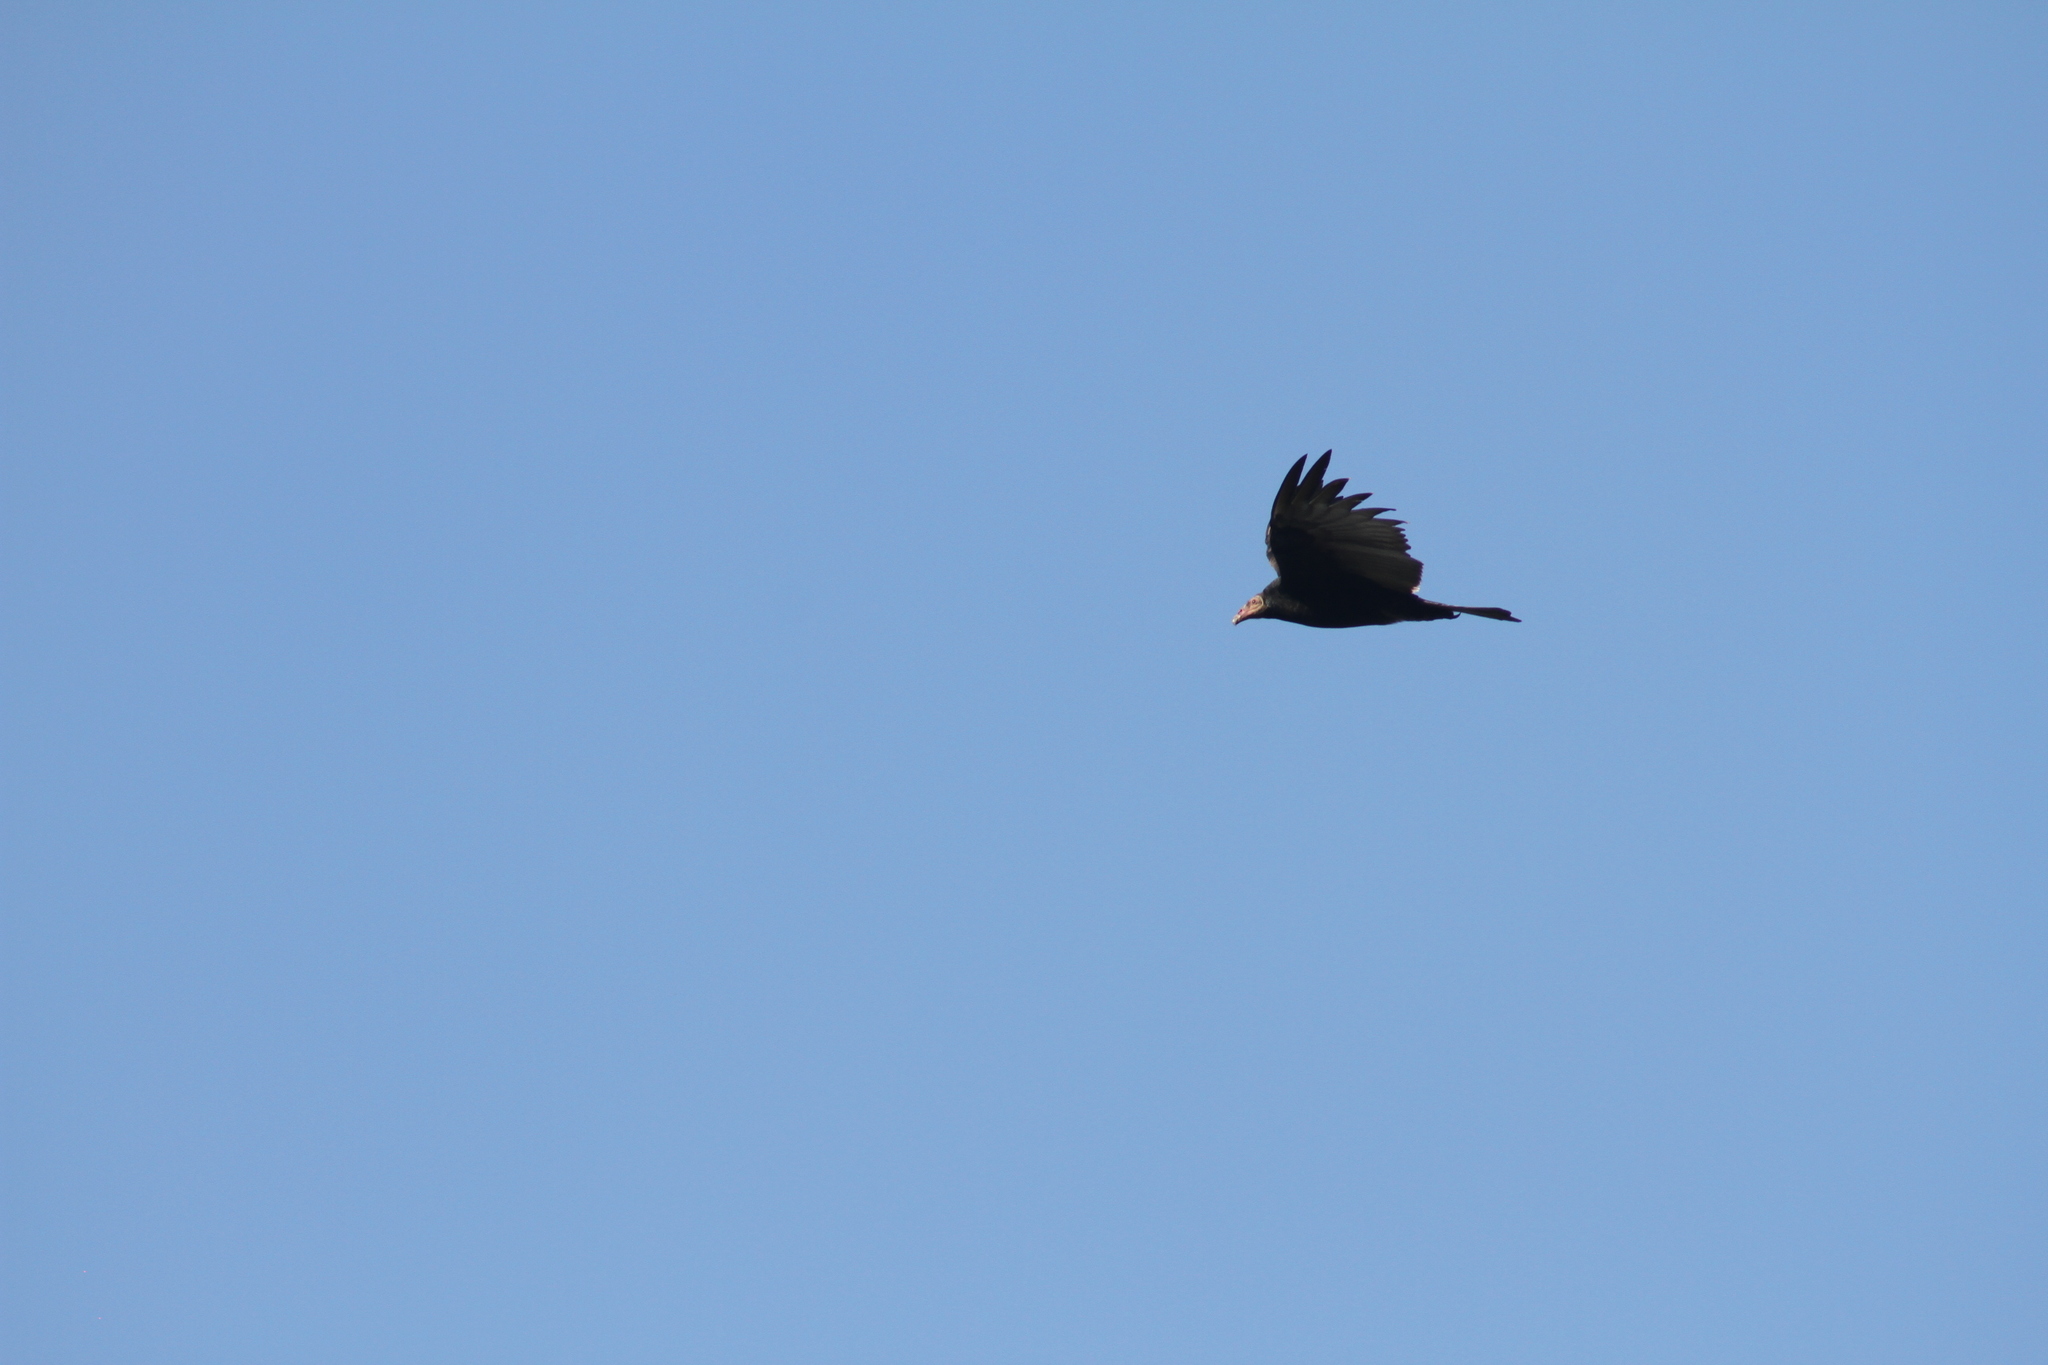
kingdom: Animalia
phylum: Chordata
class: Aves
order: Accipitriformes
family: Cathartidae
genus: Cathartes
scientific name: Cathartes aura
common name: Turkey vulture
